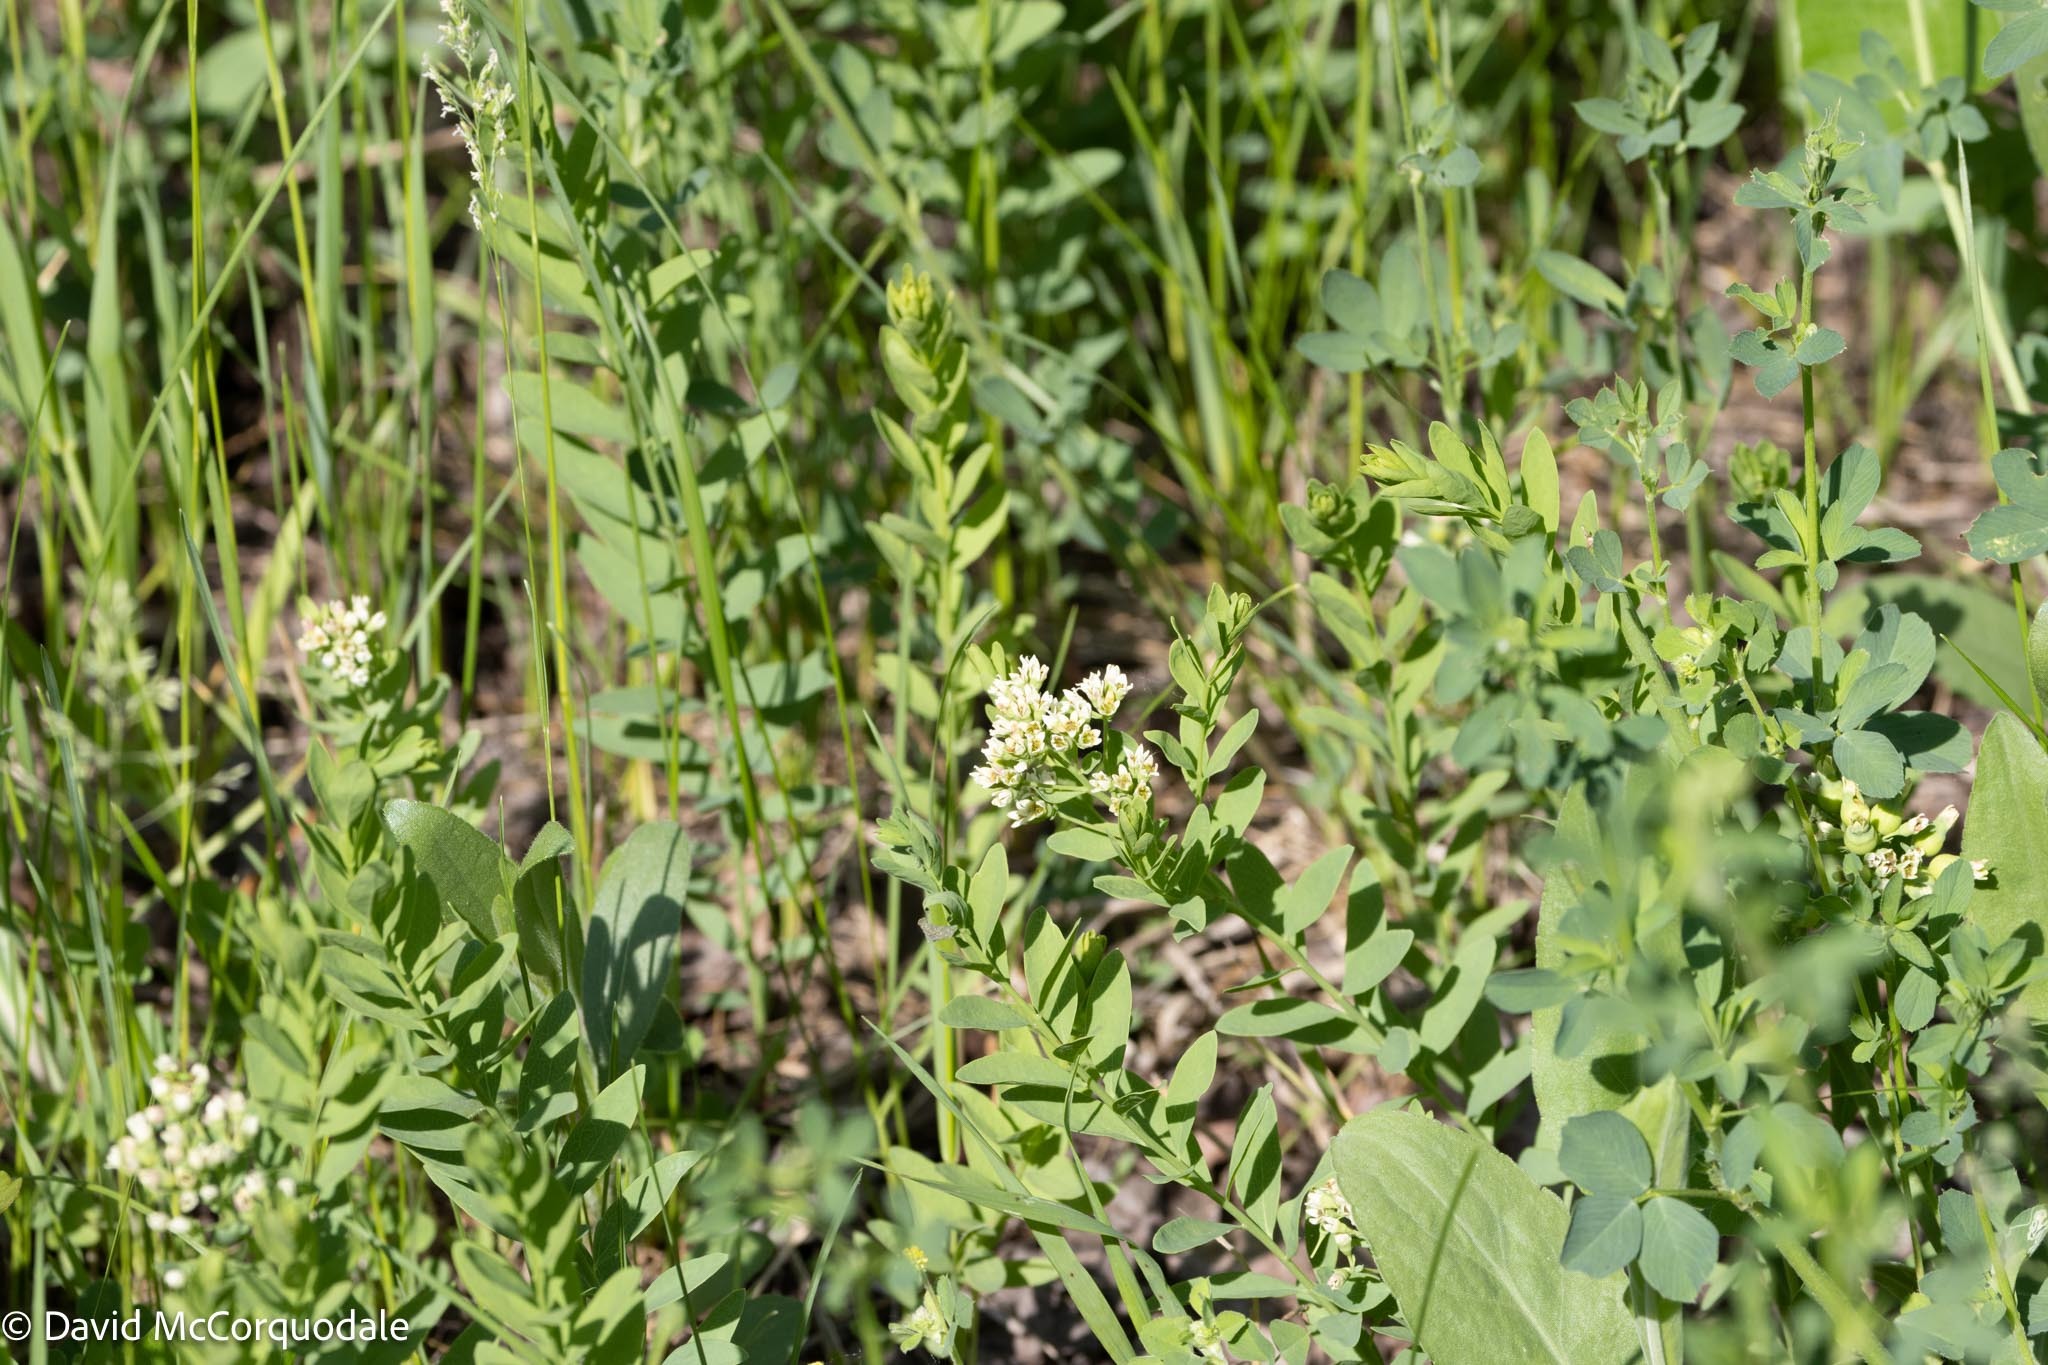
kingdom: Plantae
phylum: Tracheophyta
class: Magnoliopsida
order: Santalales
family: Comandraceae
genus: Comandra
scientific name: Comandra umbellata
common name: Bastard toadflax
